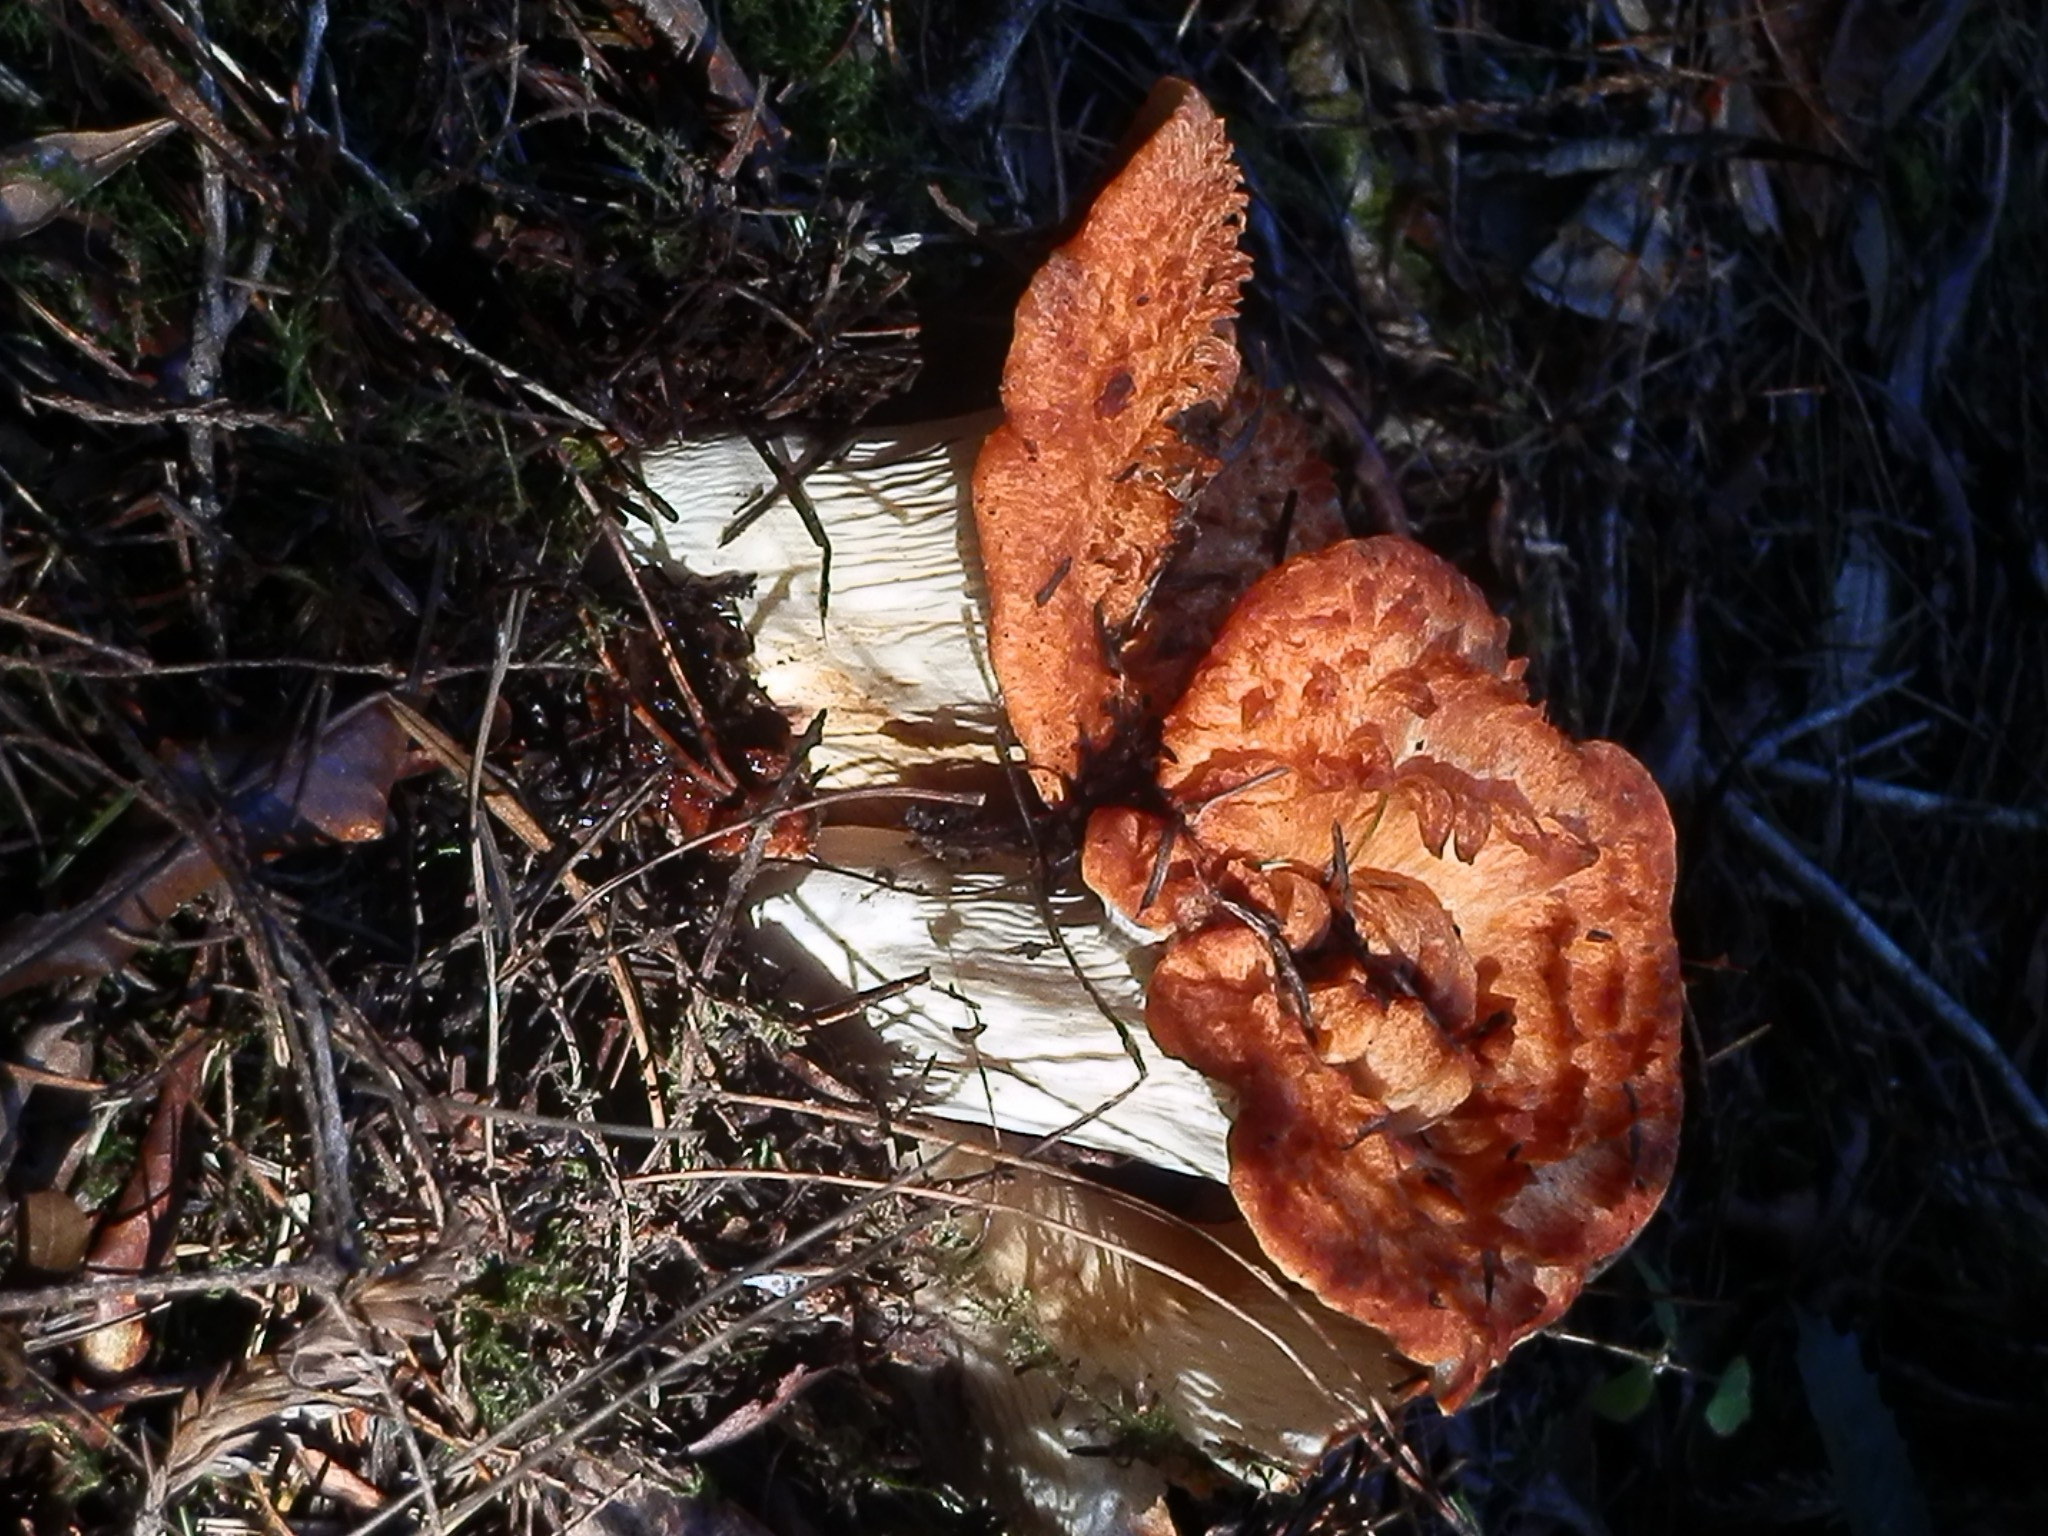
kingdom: Fungi
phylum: Basidiomycota
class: Agaricomycetes
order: Gomphales
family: Gomphaceae
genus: Turbinellus
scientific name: Turbinellus floccosus
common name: Scaly chanterelle
